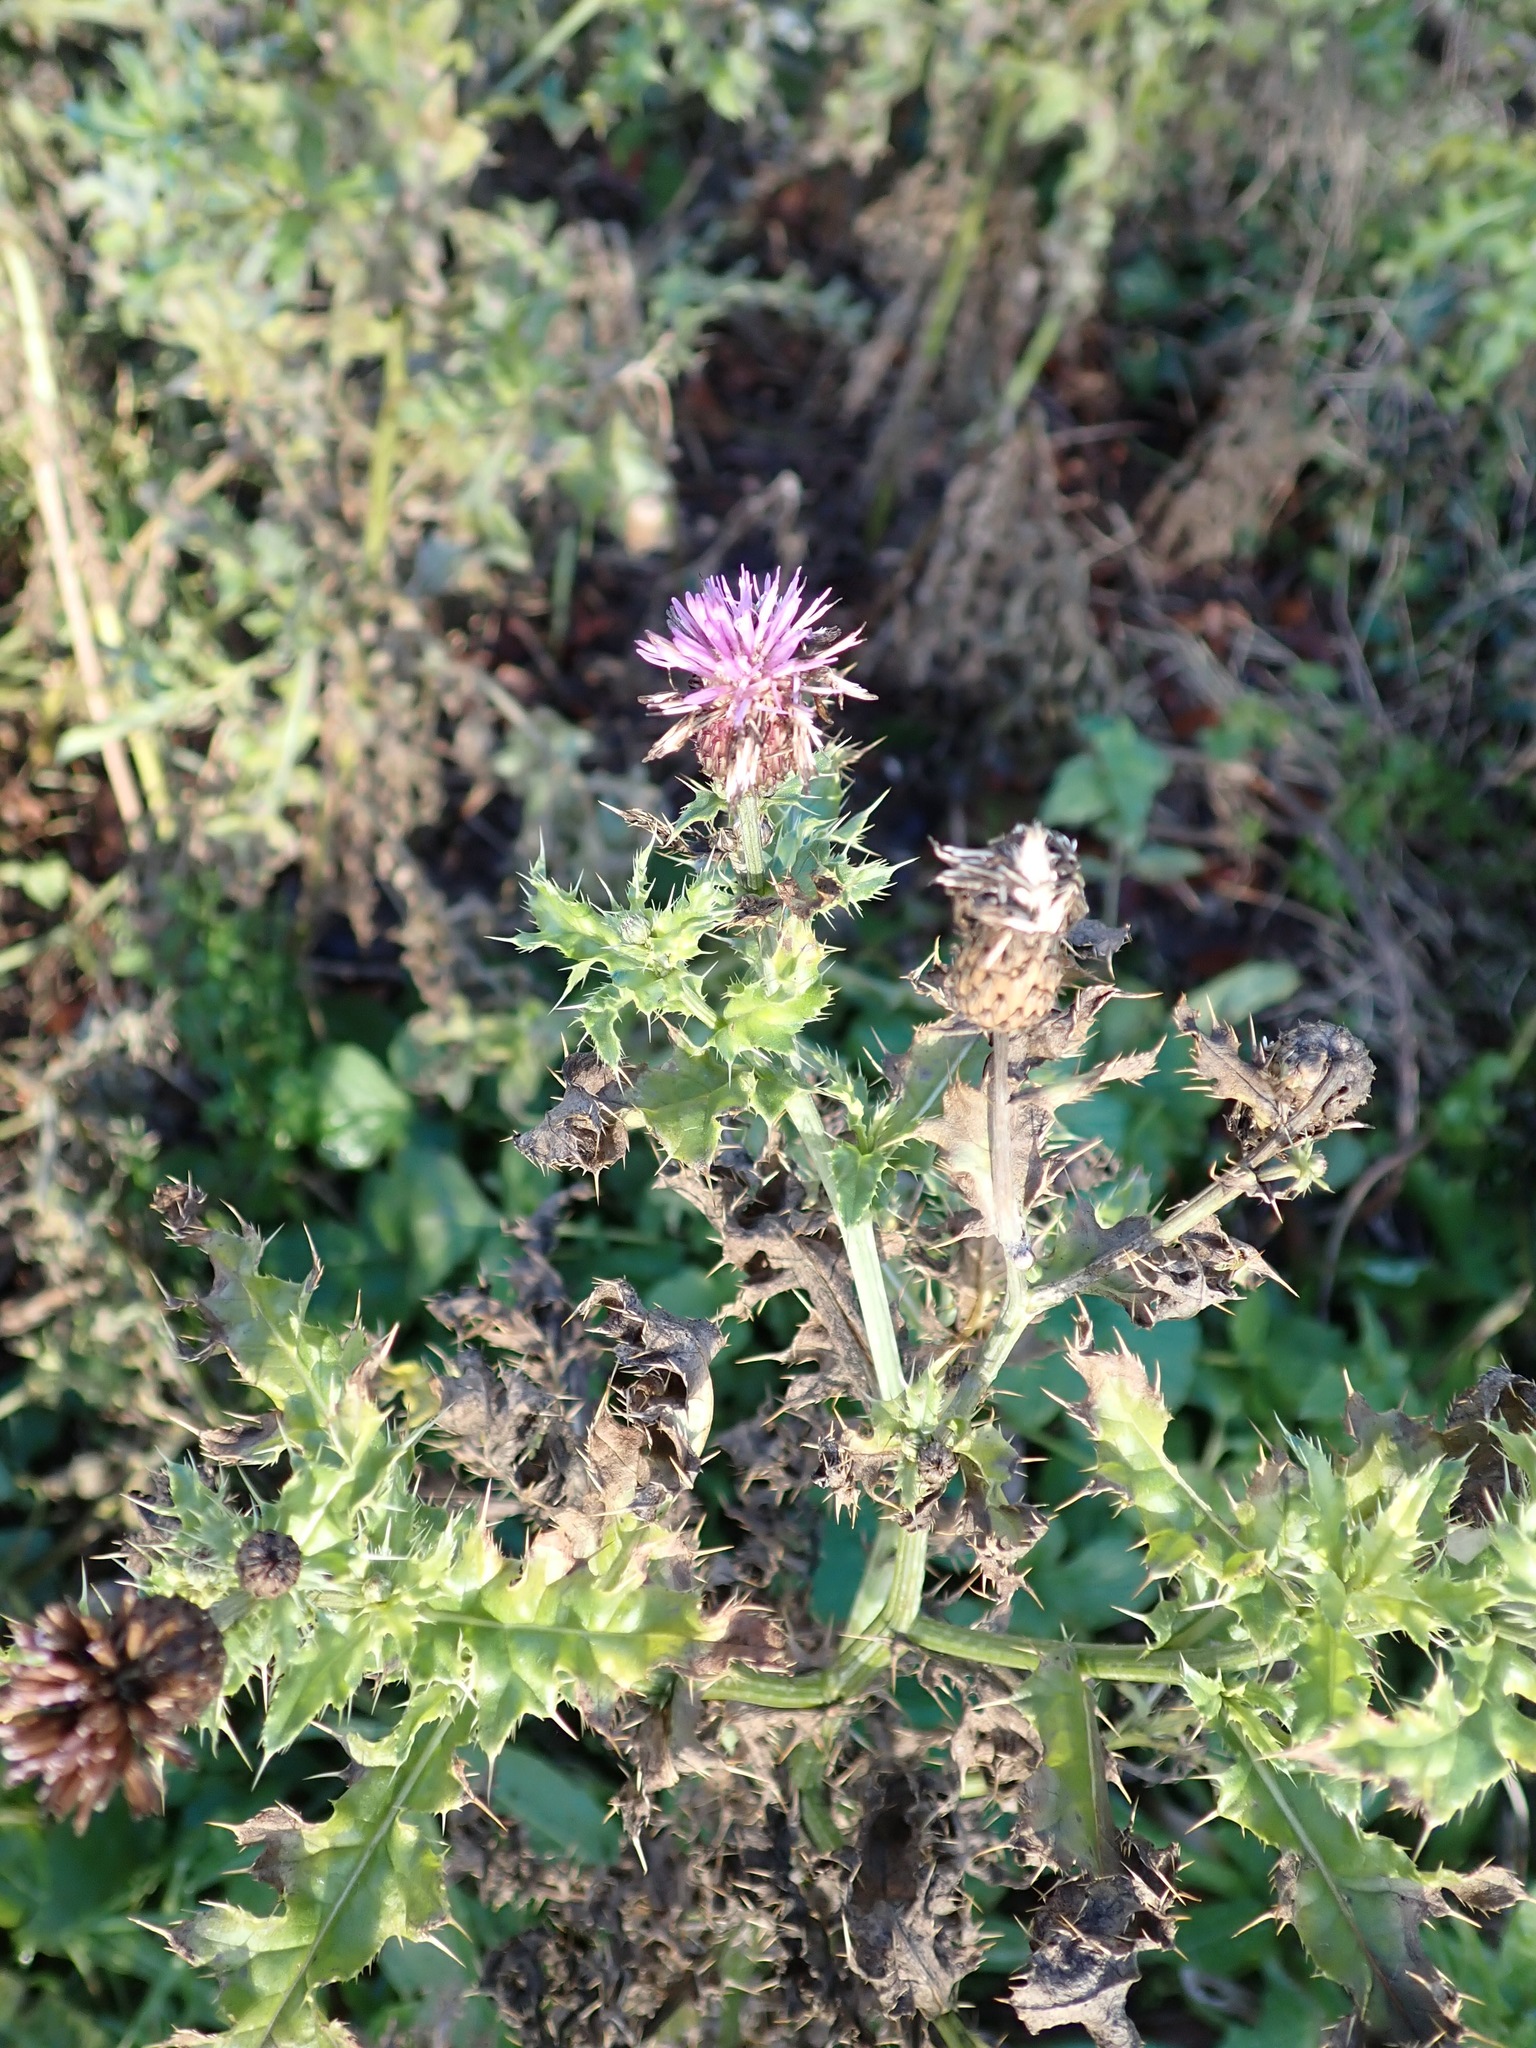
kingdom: Plantae
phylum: Tracheophyta
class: Magnoliopsida
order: Asterales
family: Asteraceae
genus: Cirsium
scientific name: Cirsium arvense
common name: Creeping thistle
